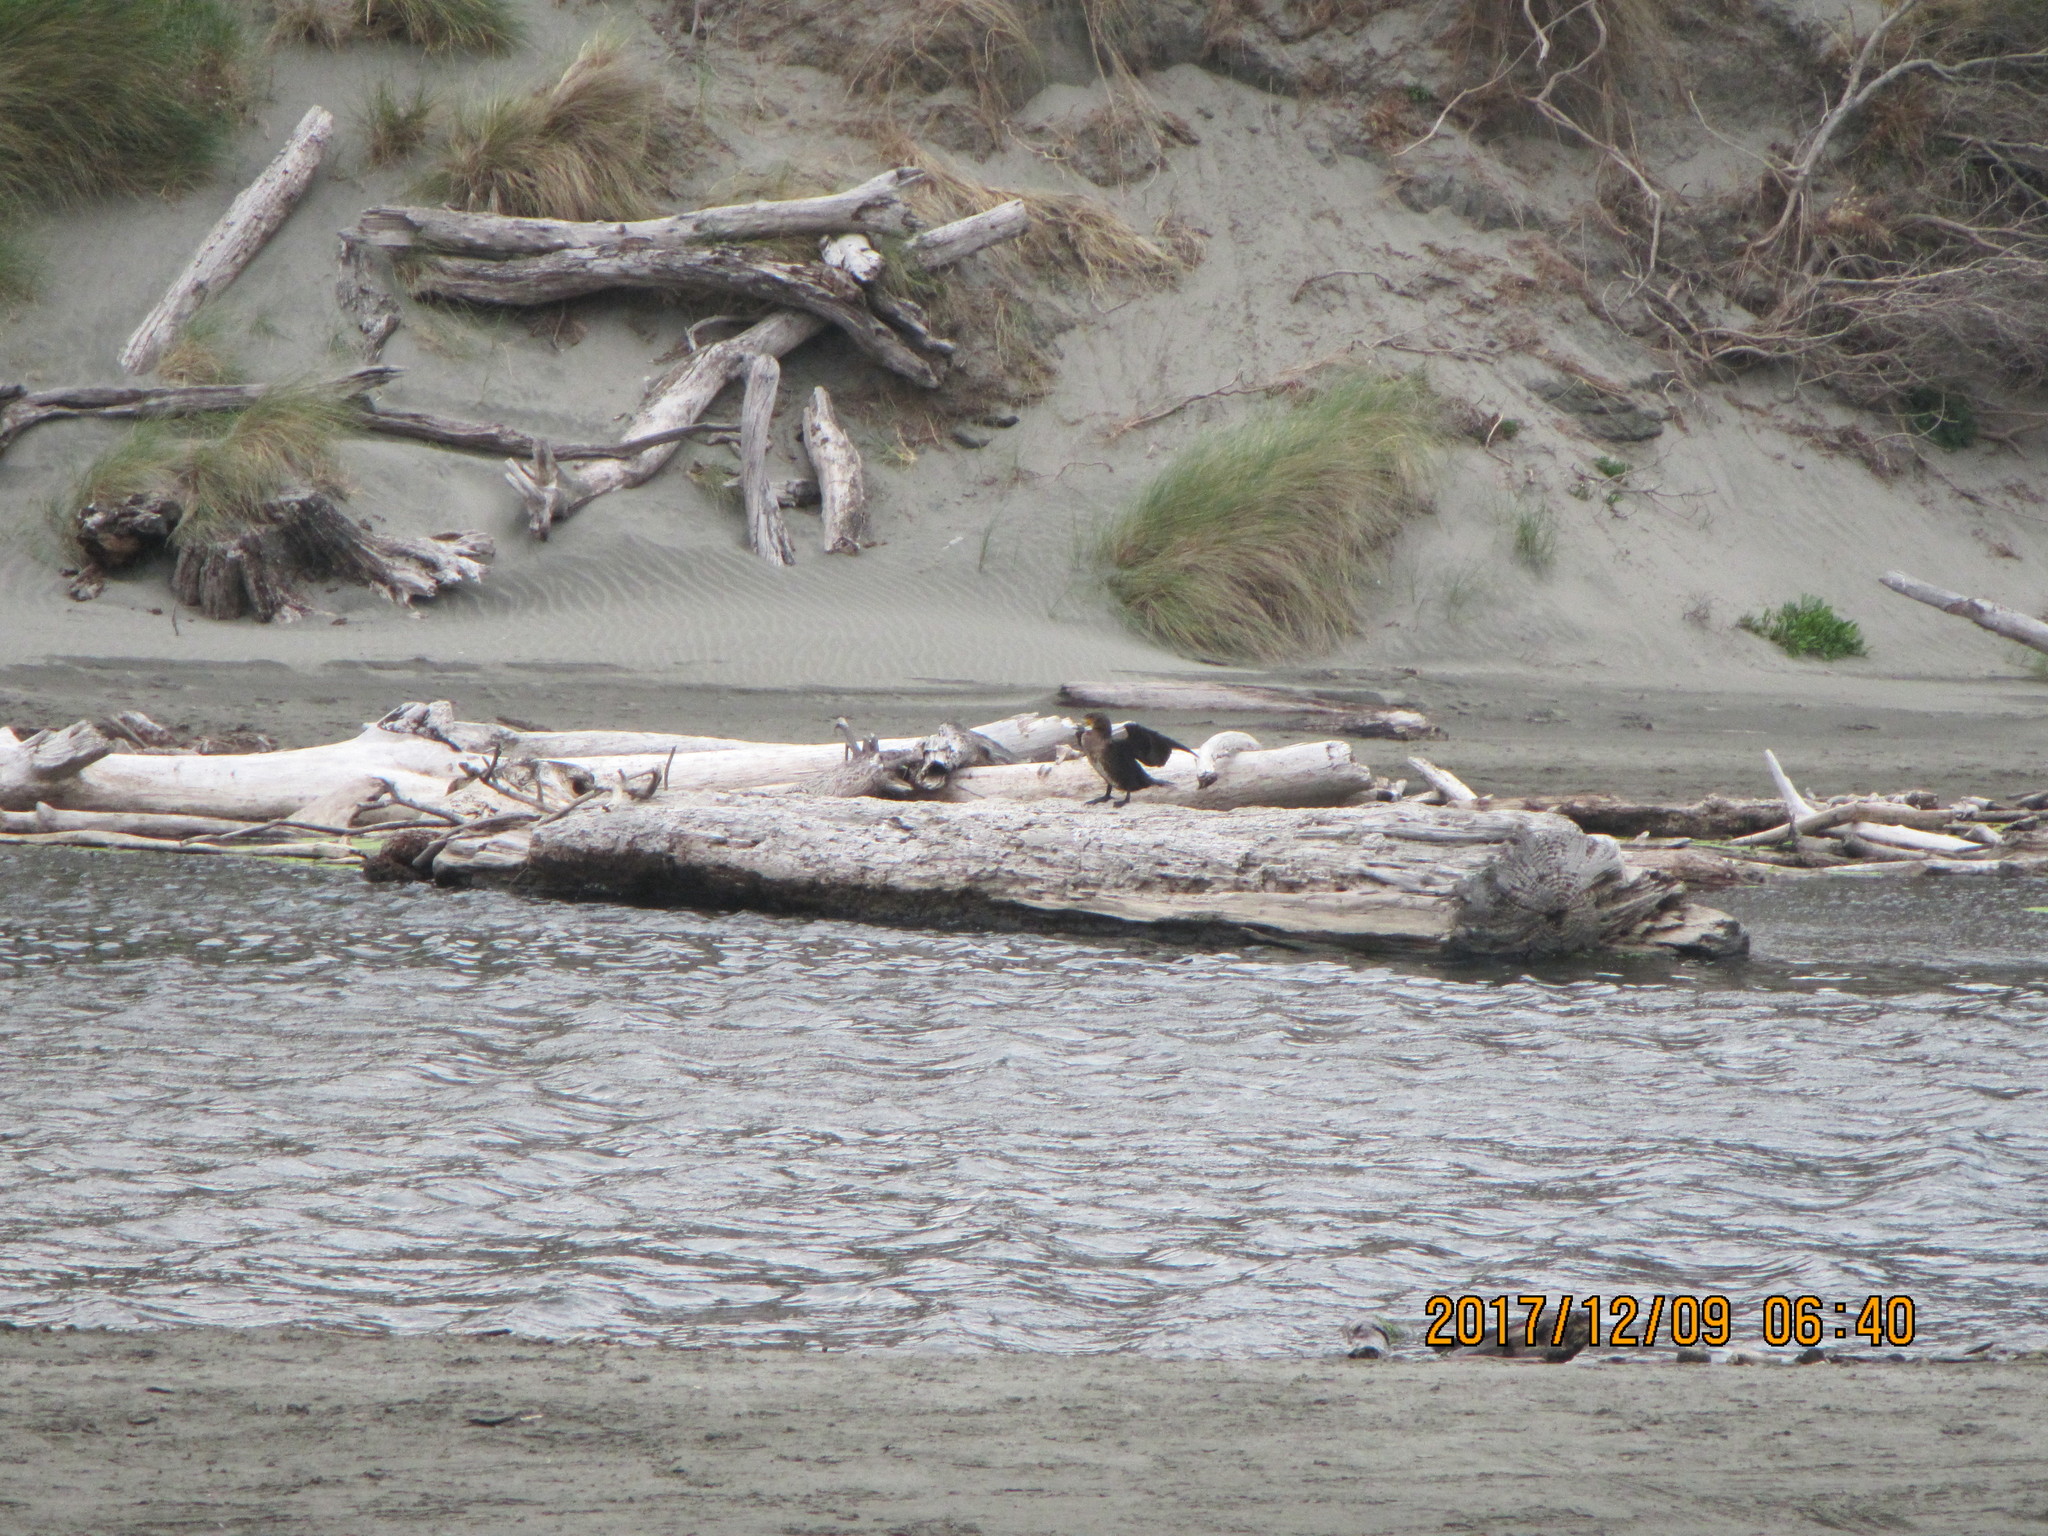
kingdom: Animalia
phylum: Chordata
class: Aves
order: Suliformes
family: Phalacrocoracidae
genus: Phalacrocorax
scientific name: Phalacrocorax carbo
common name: Great cormorant
